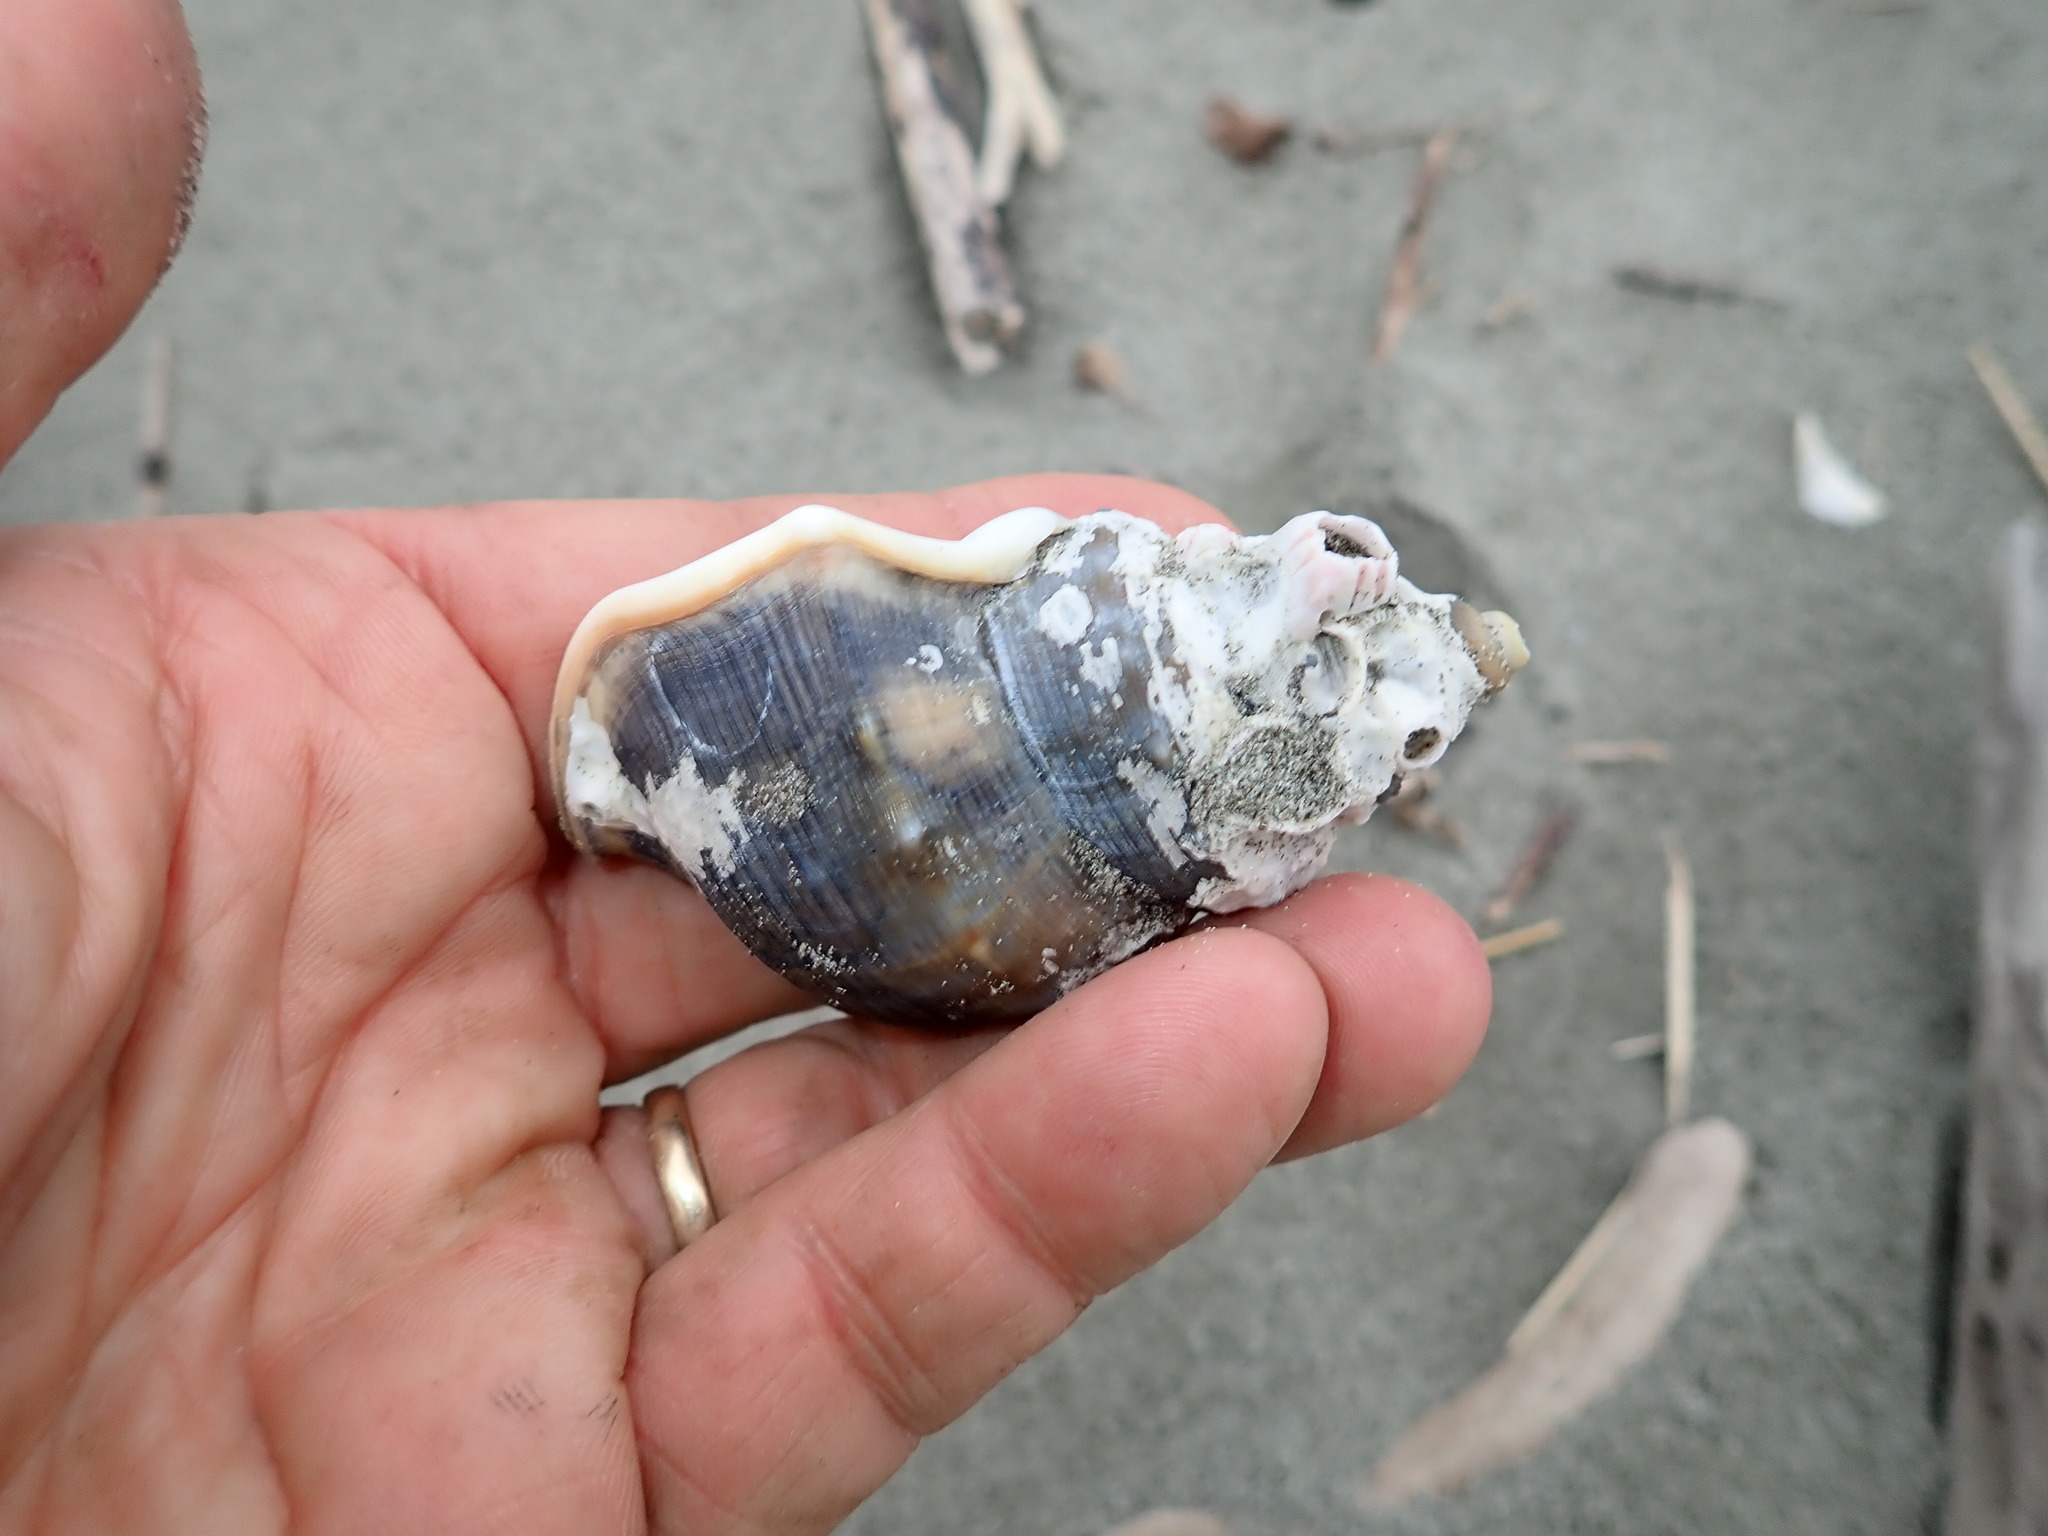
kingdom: Animalia
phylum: Mollusca
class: Gastropoda
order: Littorinimorpha
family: Struthiolariidae
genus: Struthiolaria
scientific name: Struthiolaria papulosa
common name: Large ostrich foot
